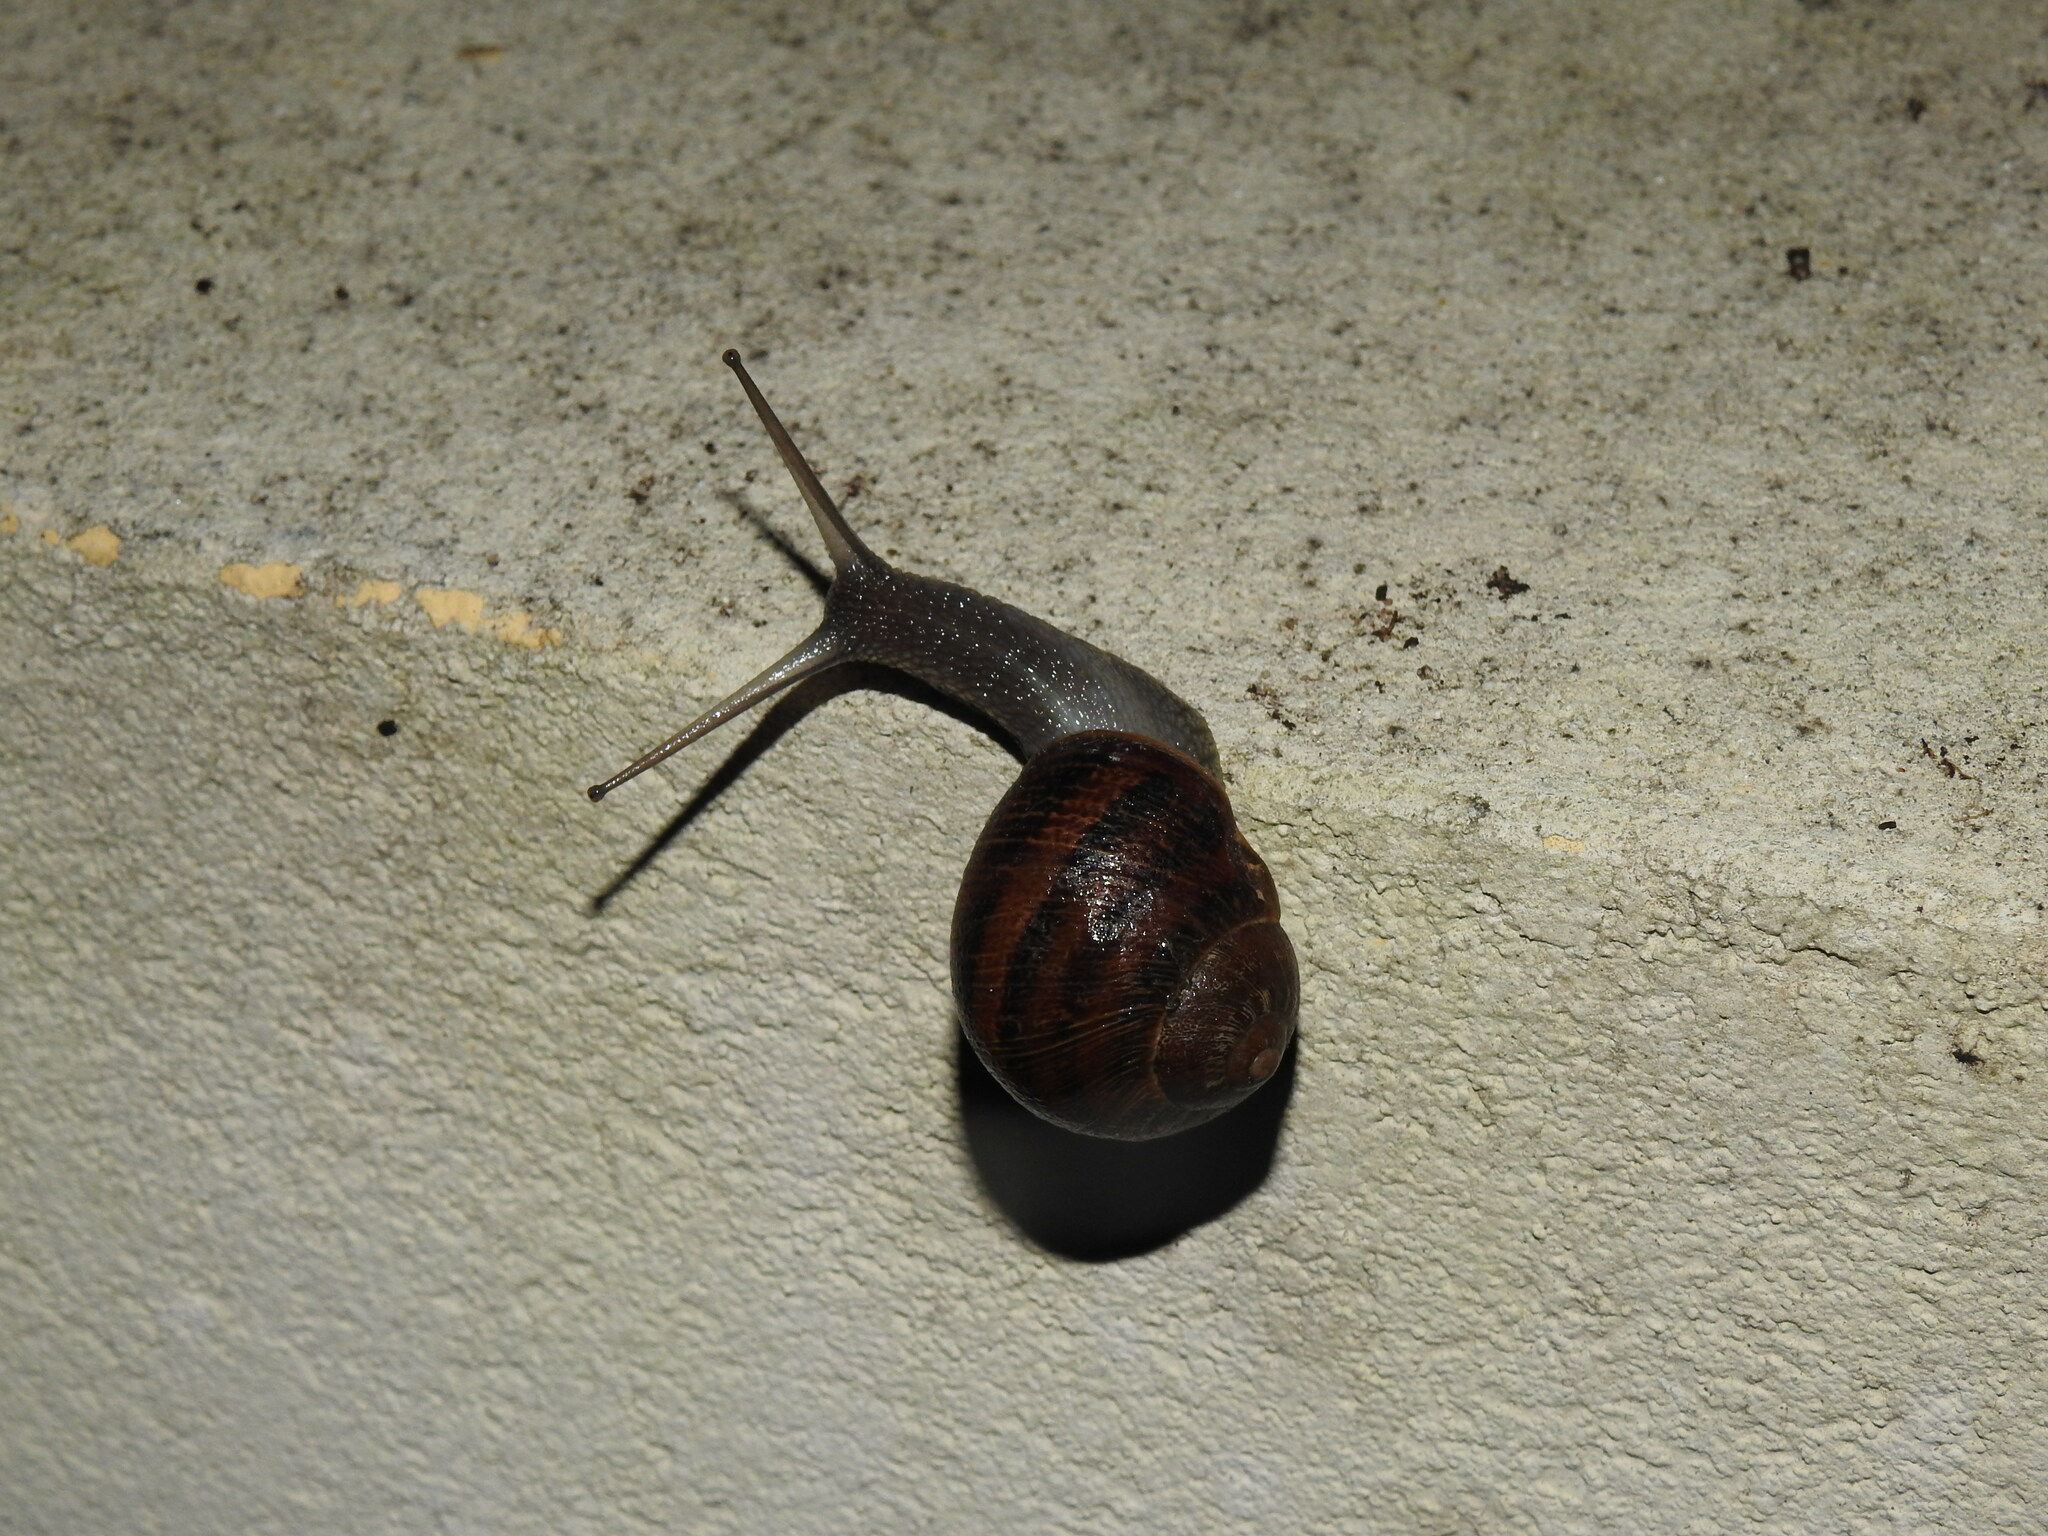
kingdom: Animalia
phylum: Mollusca
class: Gastropoda
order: Stylommatophora
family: Helicidae
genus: Cornu
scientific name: Cornu aspersum
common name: Brown garden snail
